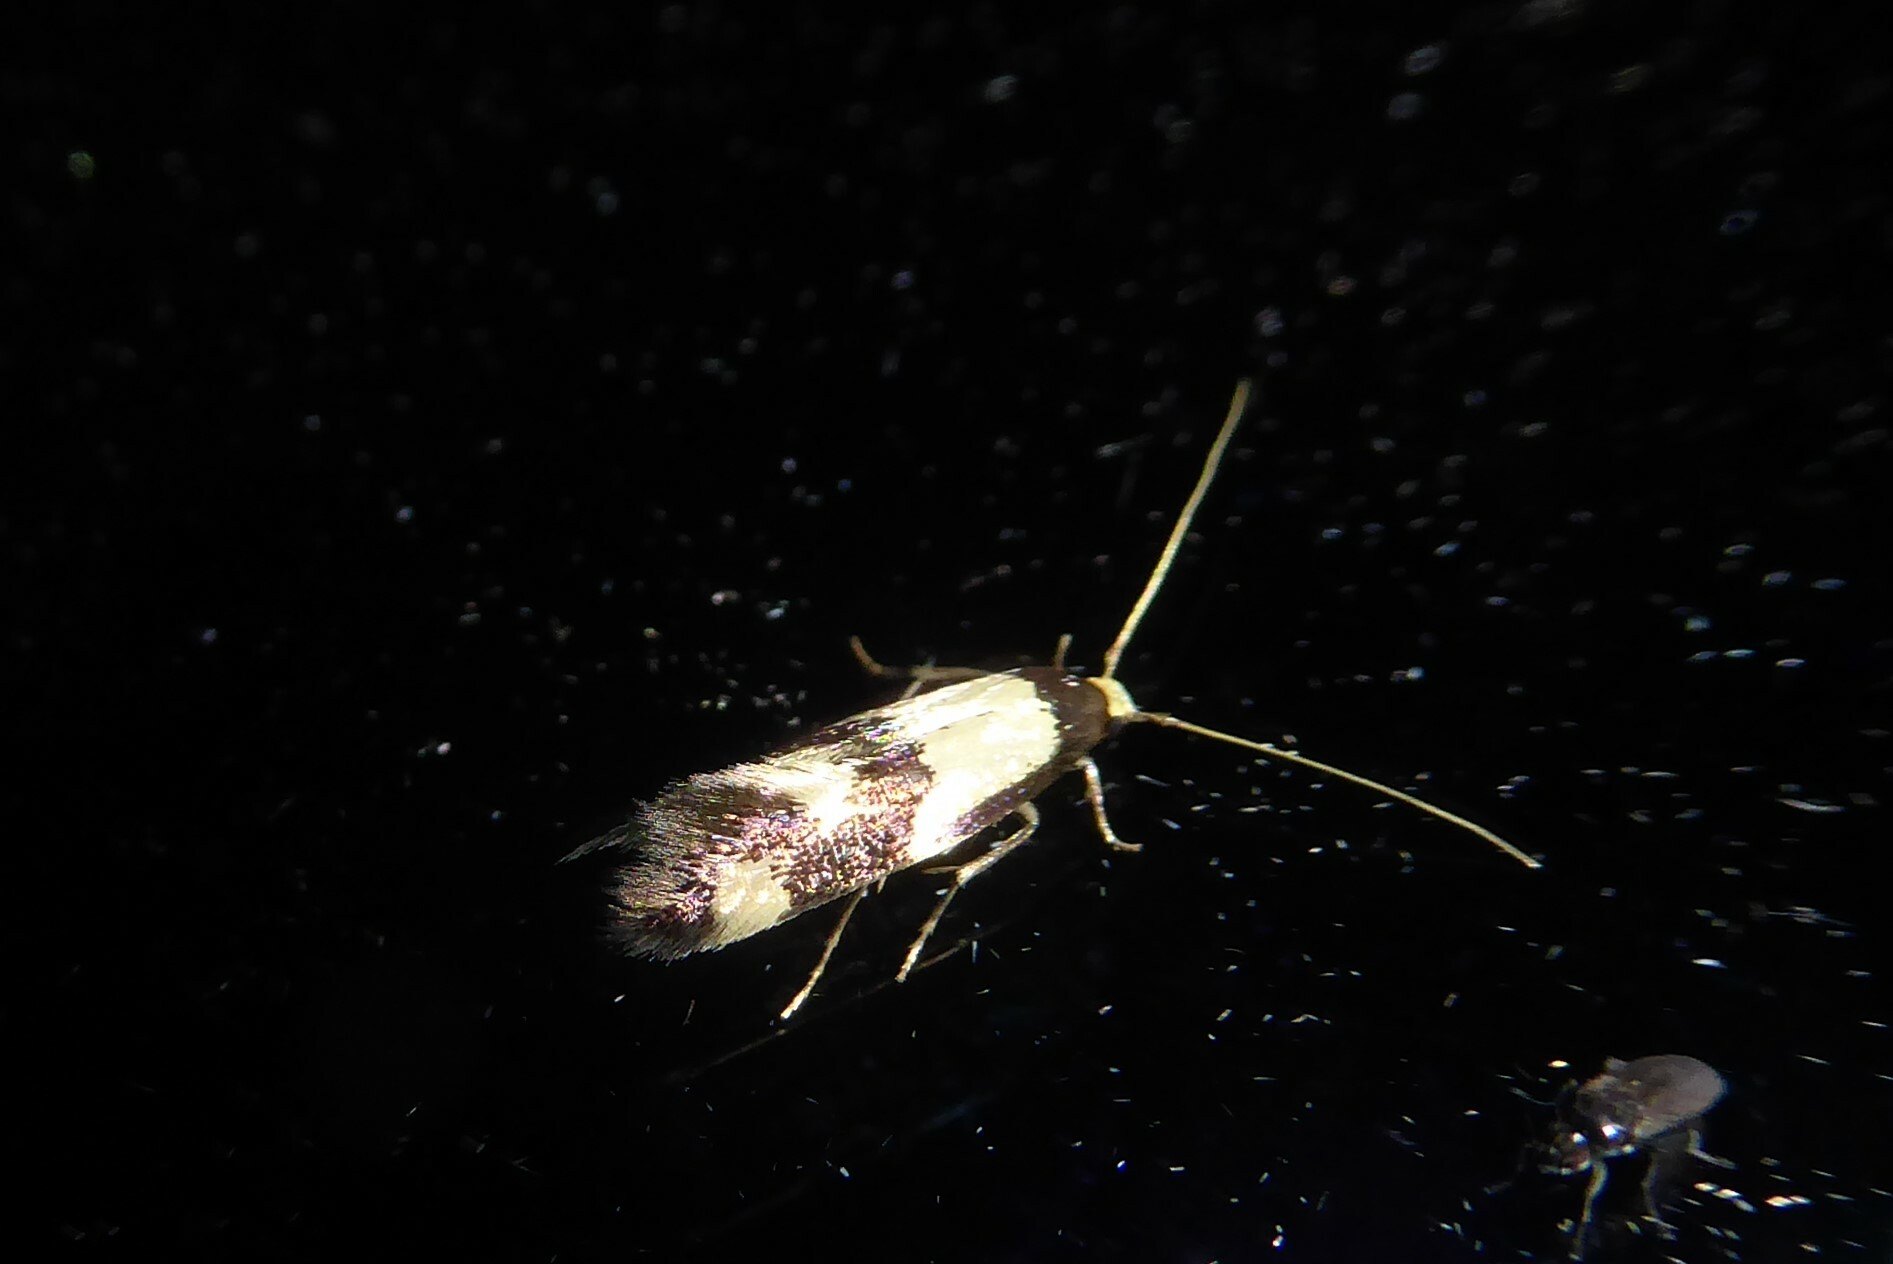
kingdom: Animalia
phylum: Arthropoda
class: Insecta
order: Lepidoptera
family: Tineidae
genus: Opogona
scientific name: Opogona comptella
